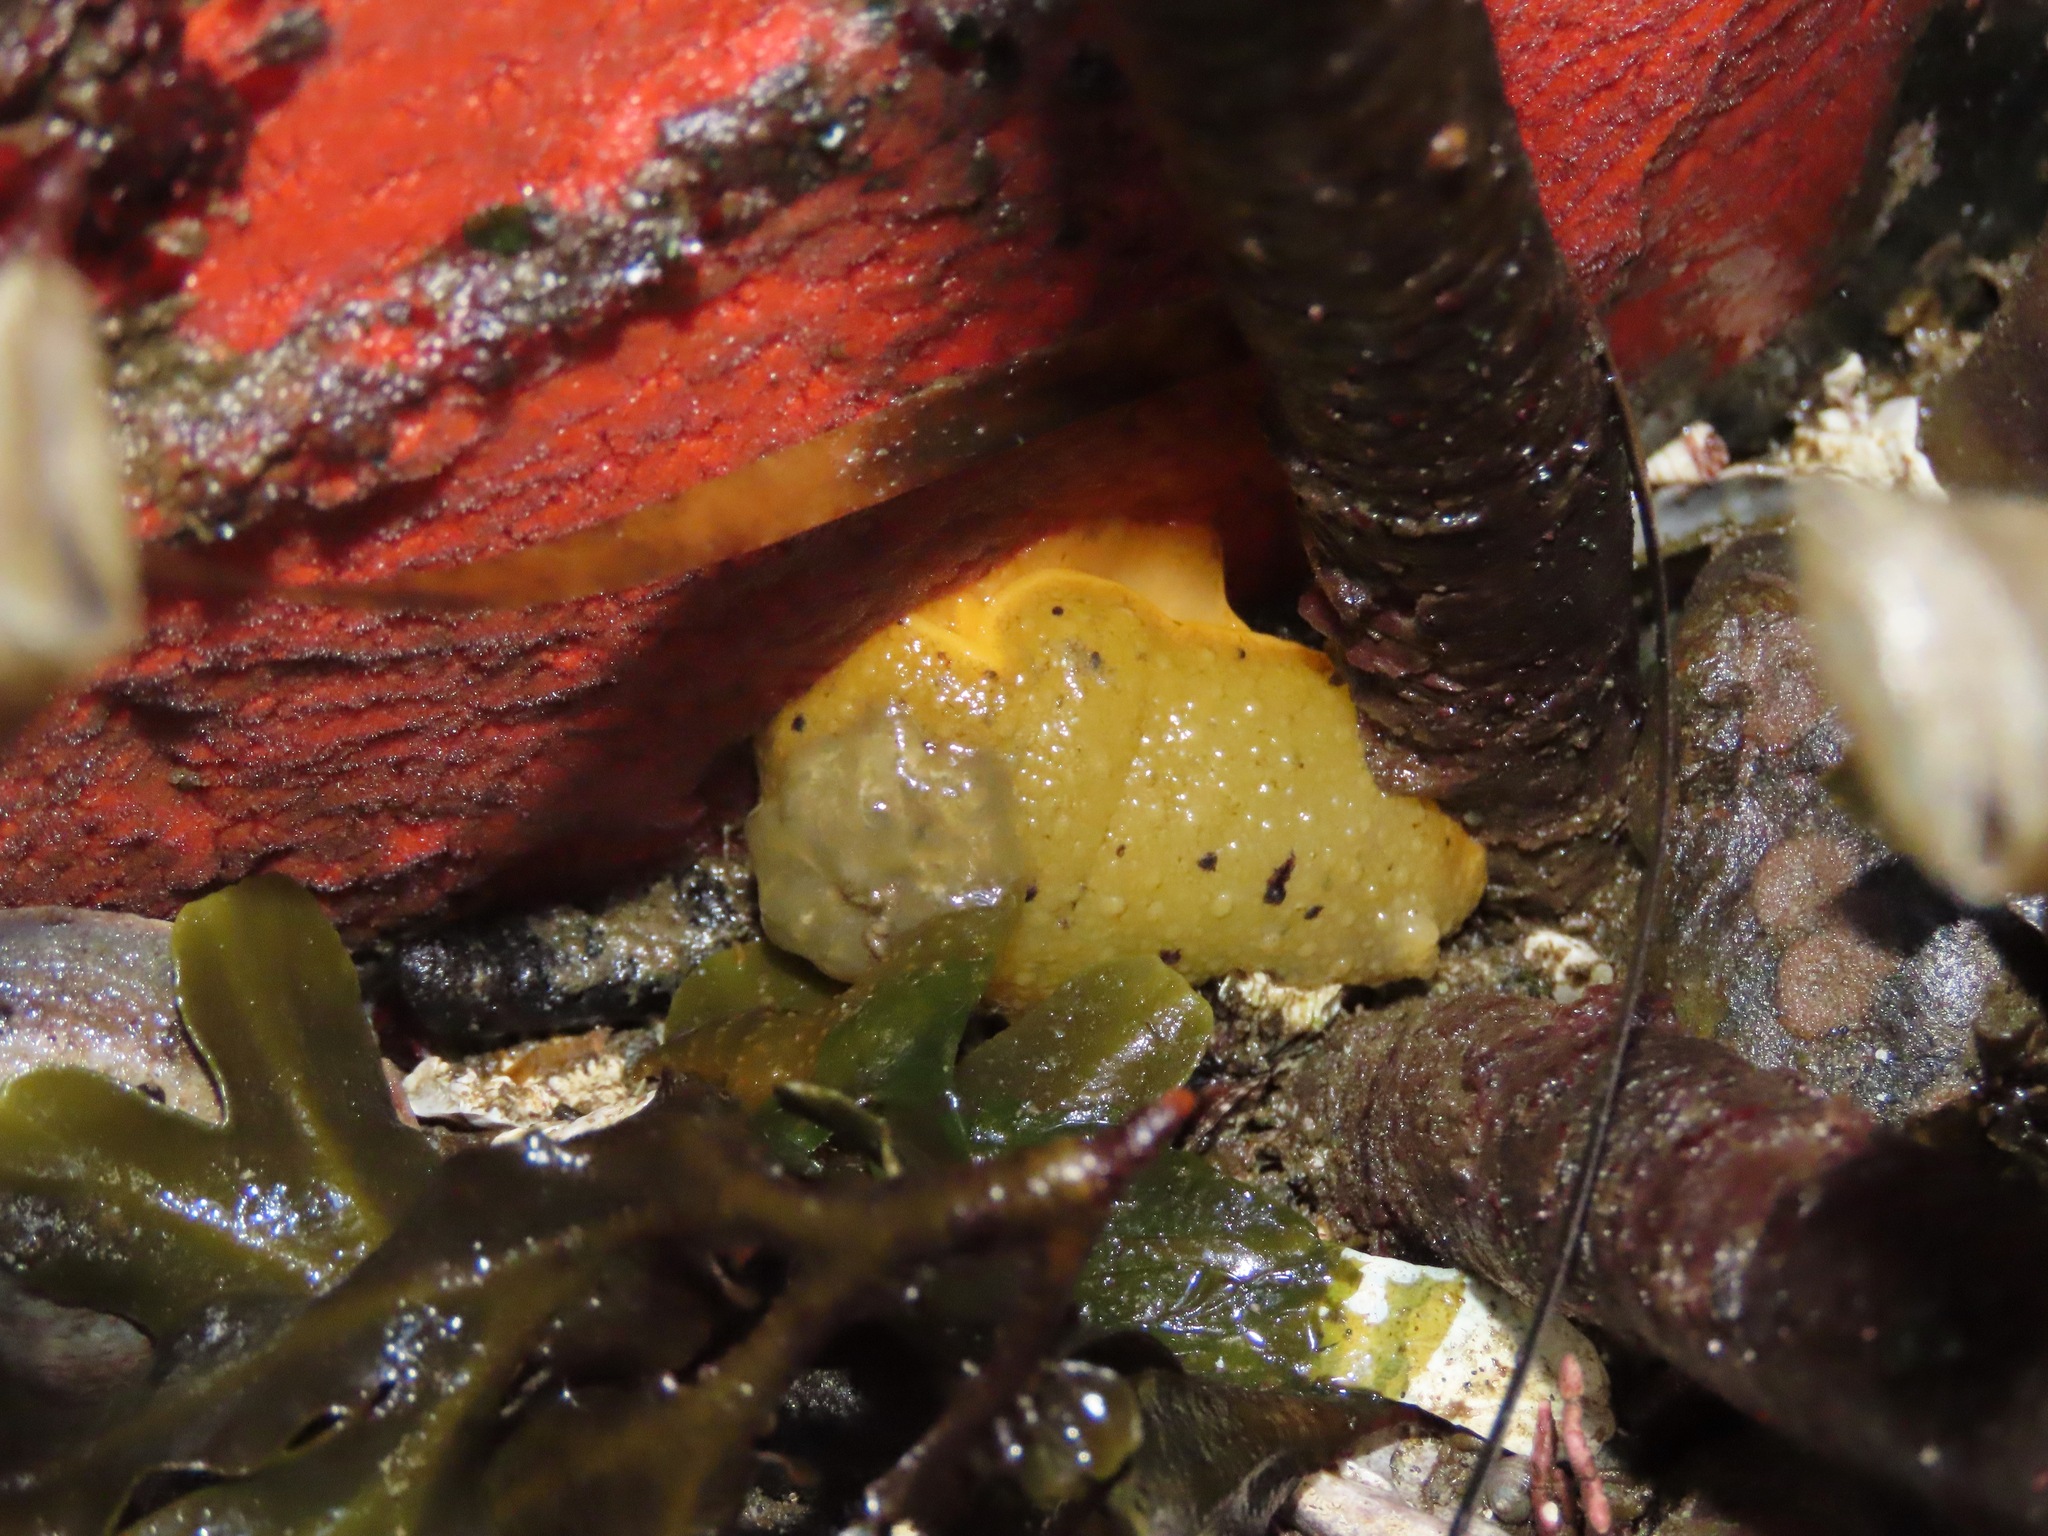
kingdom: Animalia
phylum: Mollusca
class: Gastropoda
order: Nudibranchia
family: Dorididae
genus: Doris
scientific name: Doris montereyensis
